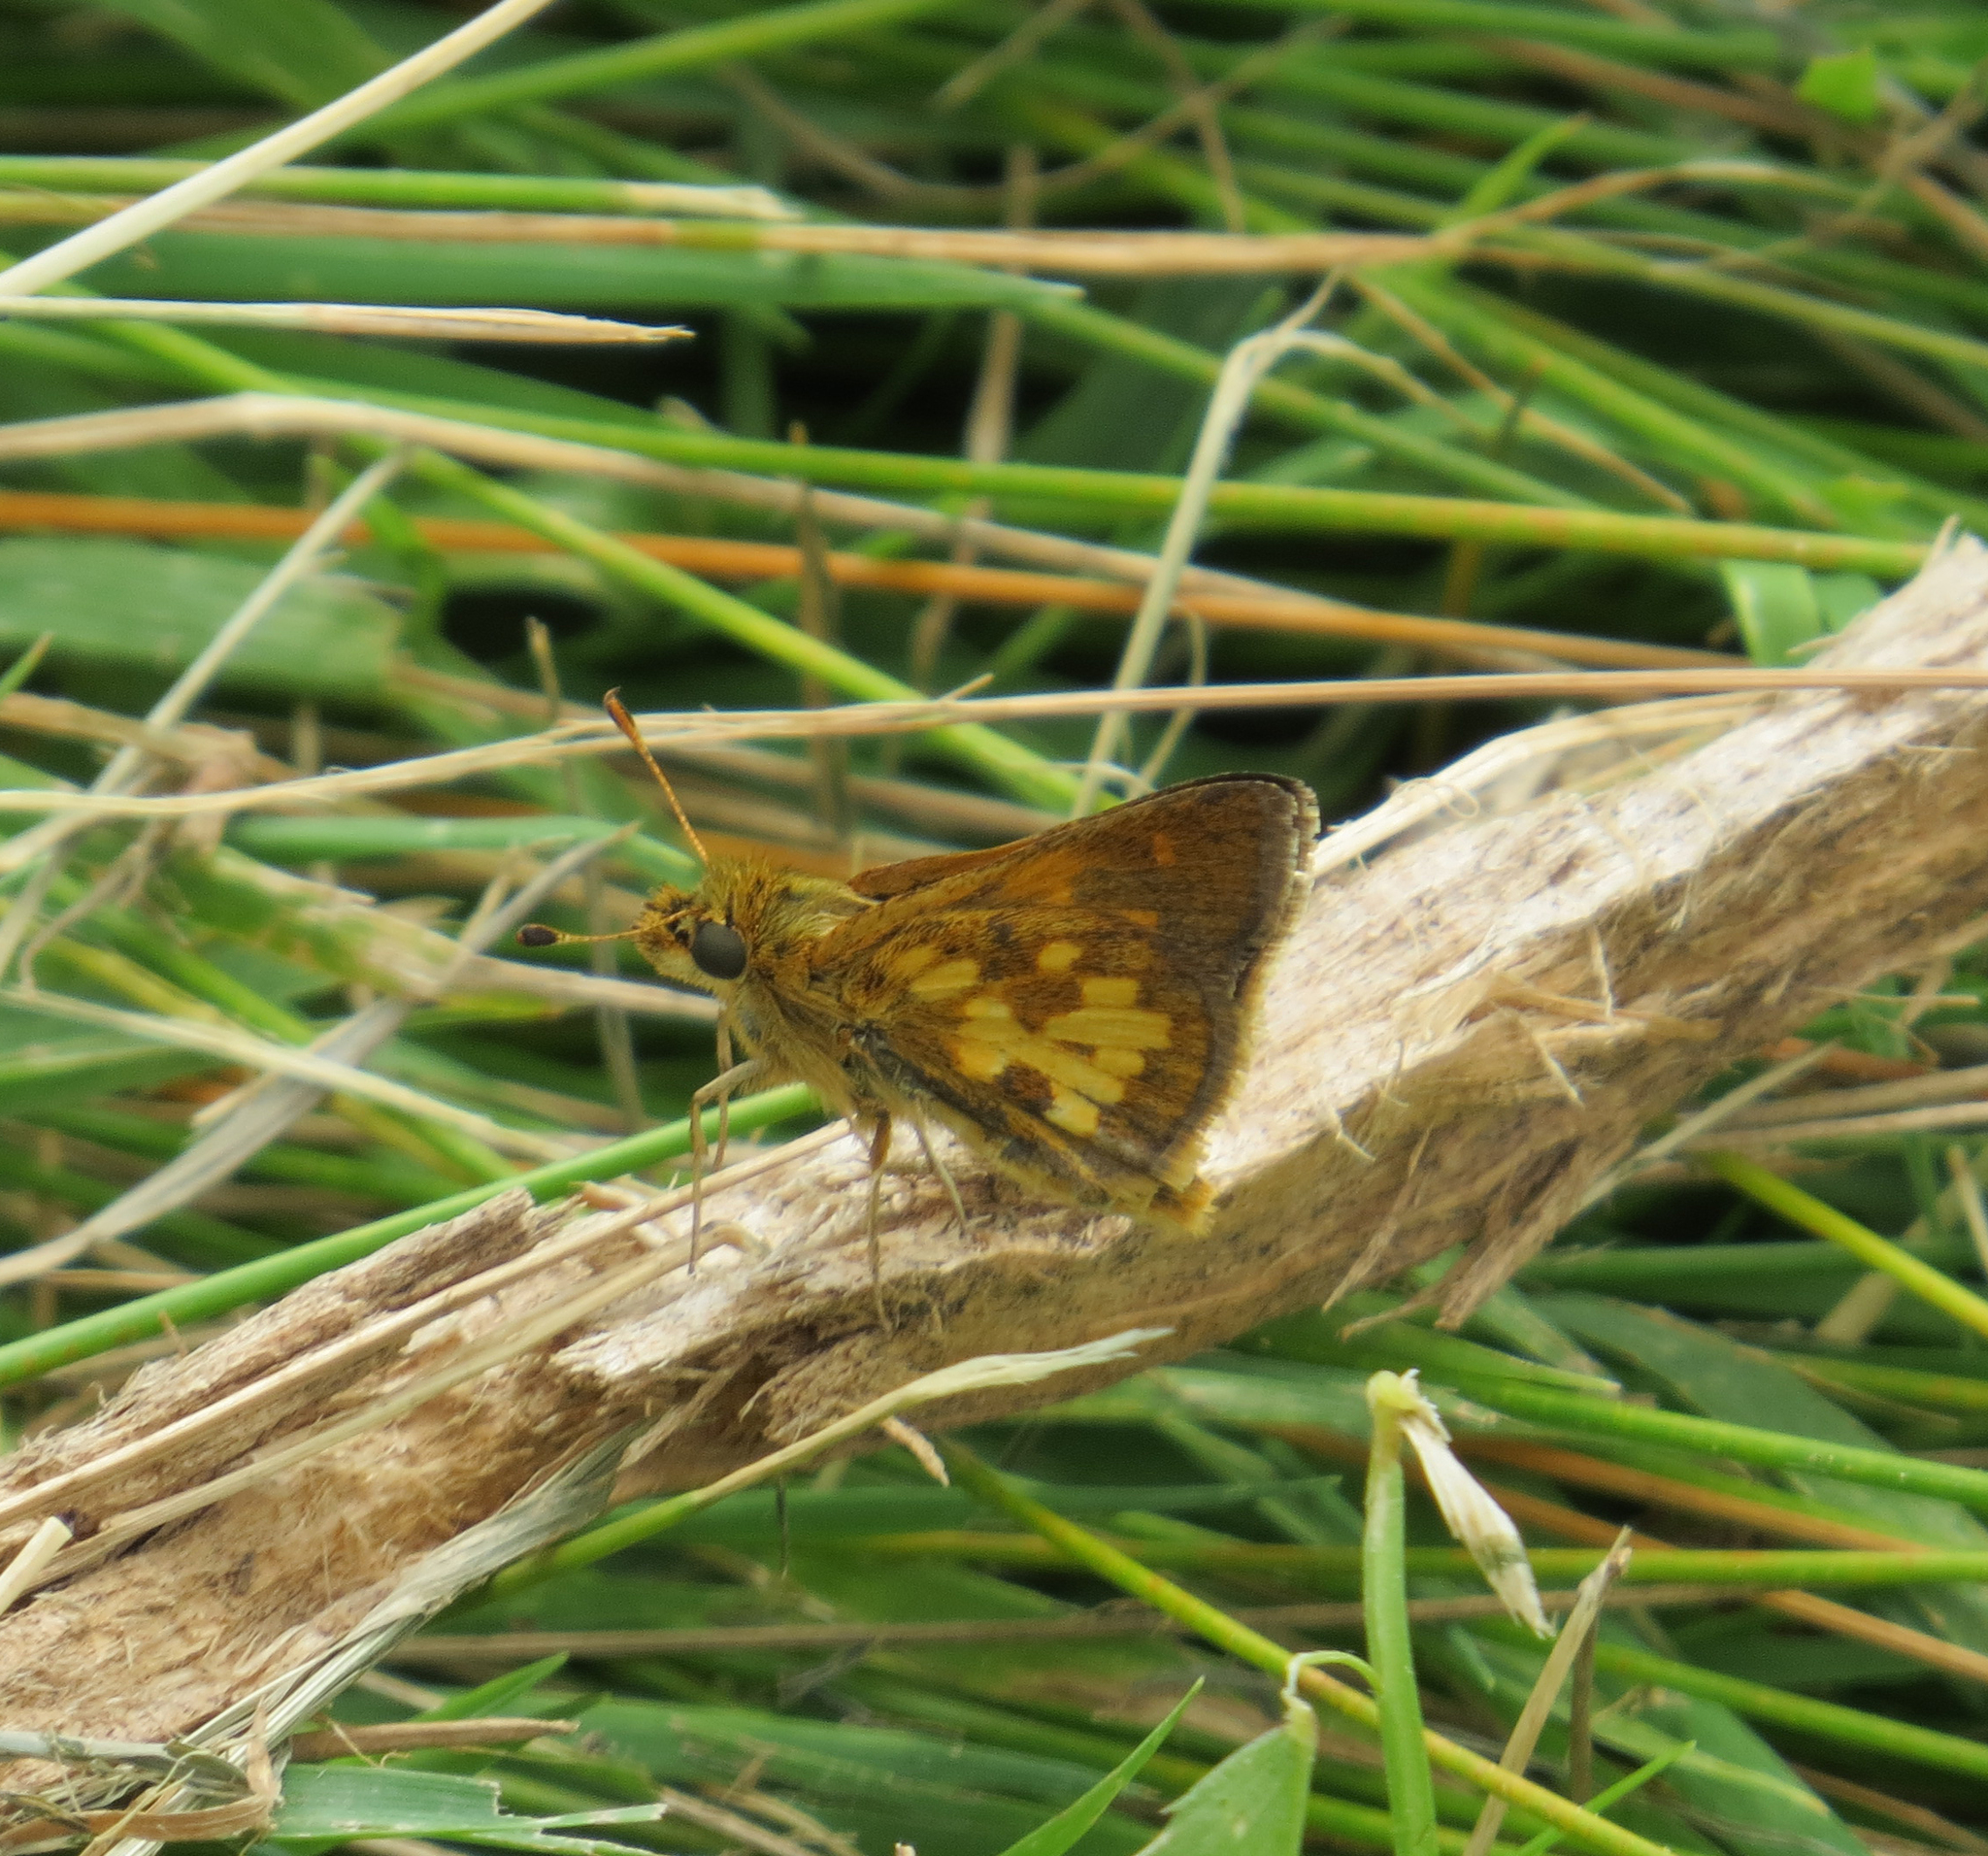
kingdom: Animalia
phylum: Arthropoda
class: Insecta
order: Lepidoptera
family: Hesperiidae
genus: Polites
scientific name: Polites coras
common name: Peck's skipper
